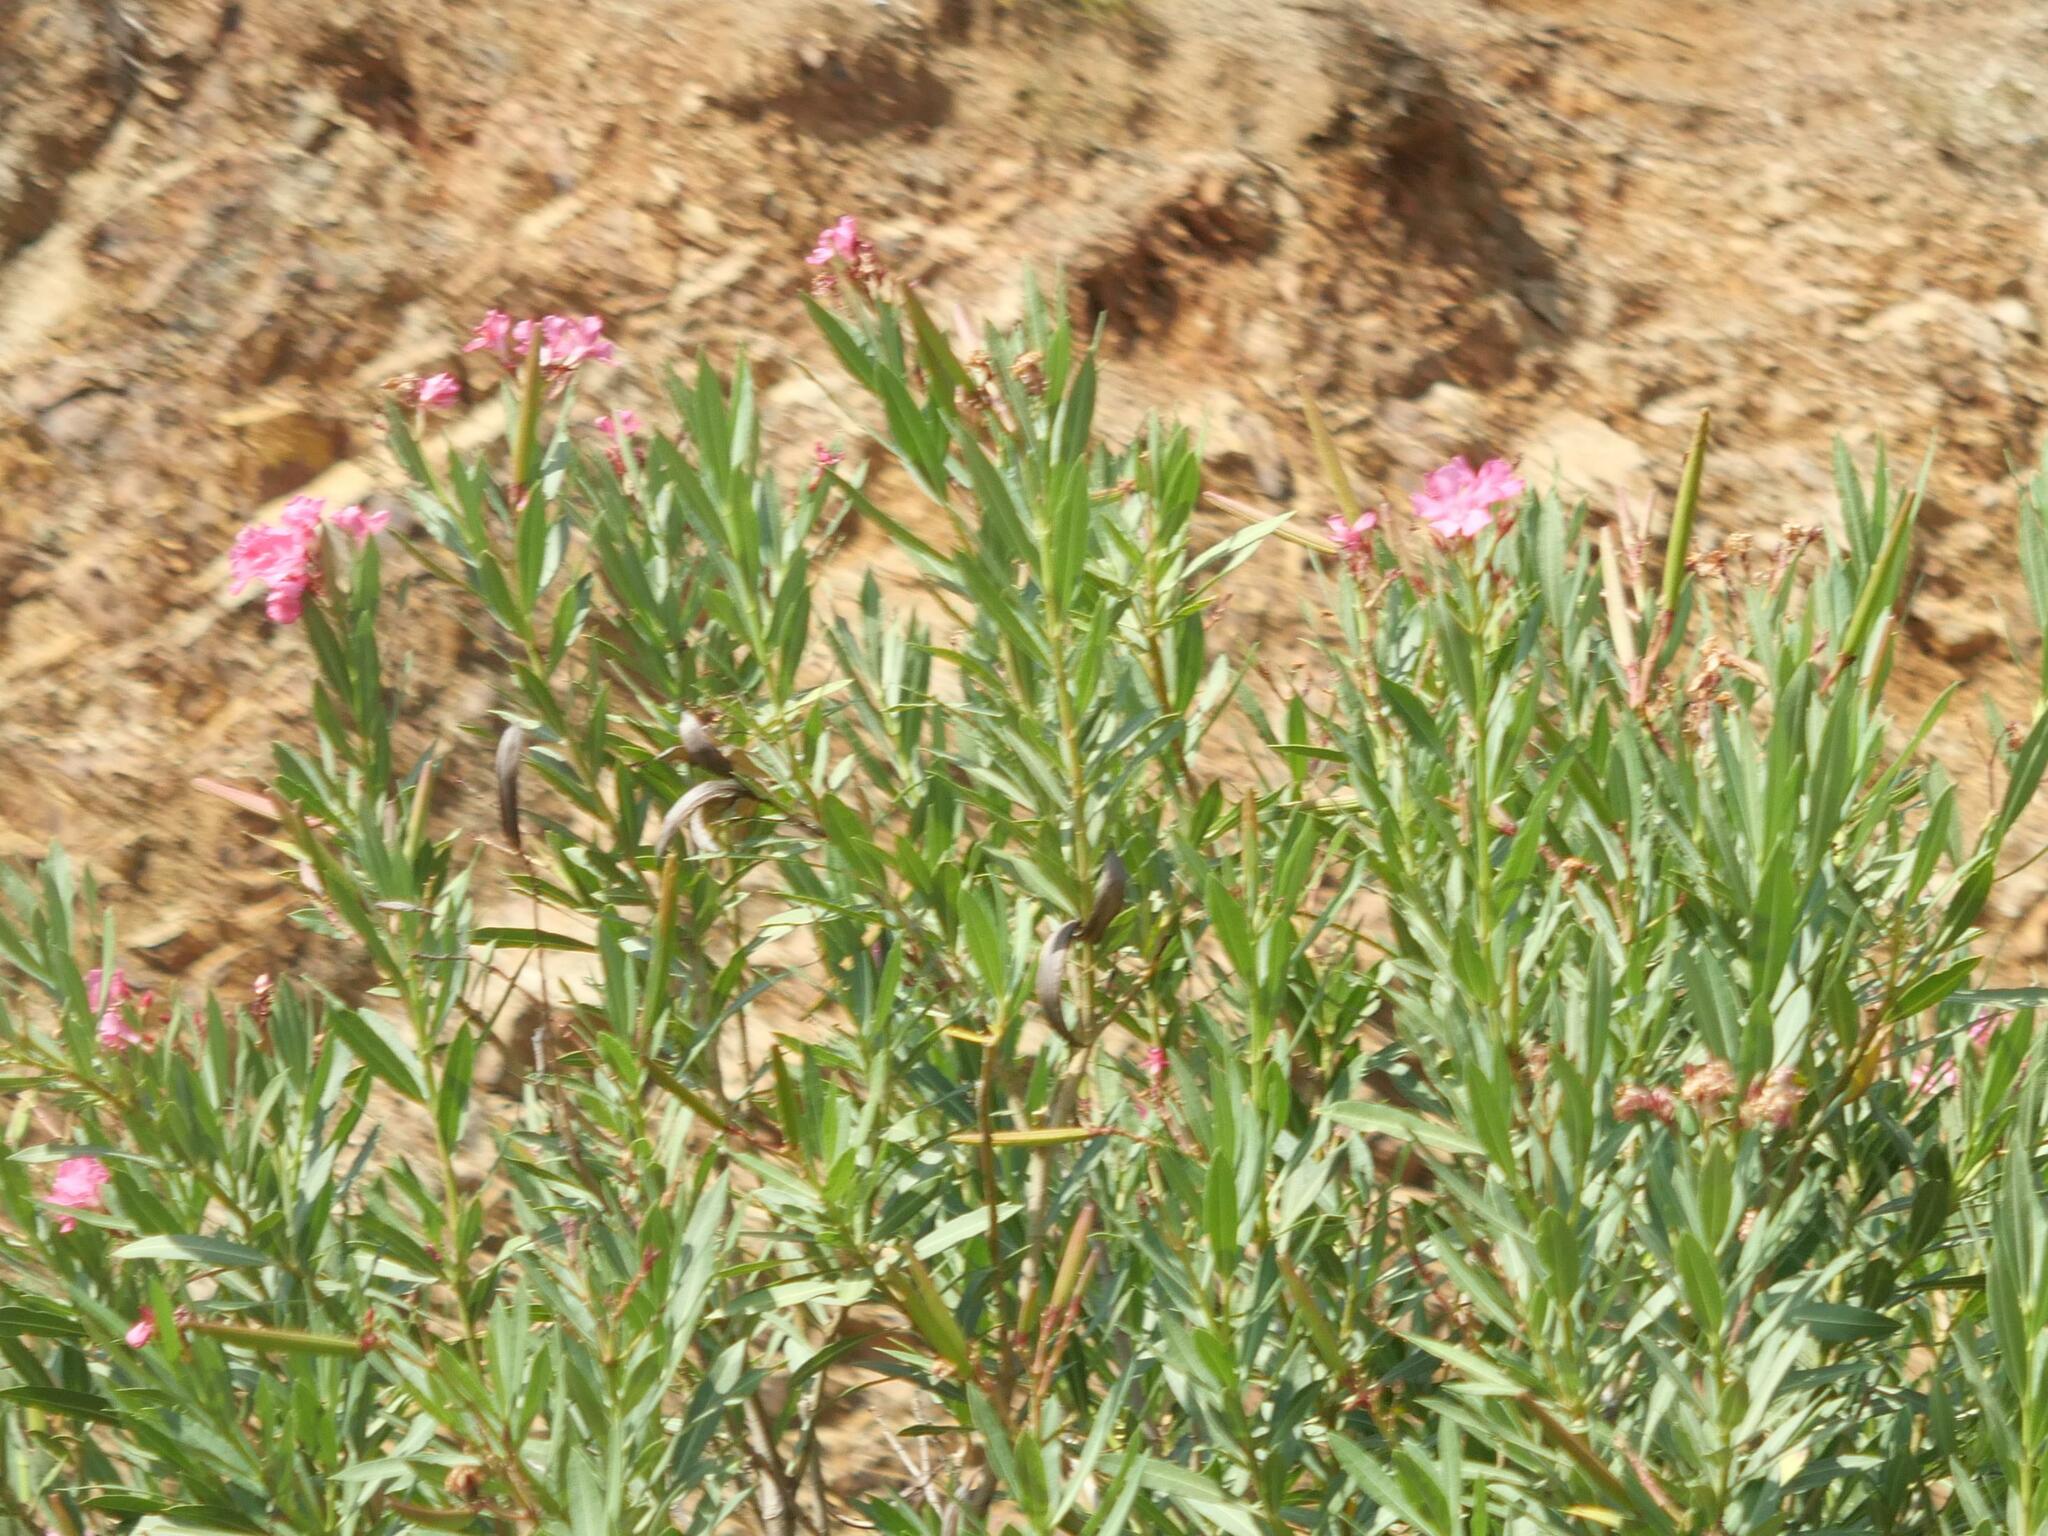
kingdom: Plantae
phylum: Tracheophyta
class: Magnoliopsida
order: Gentianales
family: Apocynaceae
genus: Nerium
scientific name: Nerium oleander
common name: Oleander
